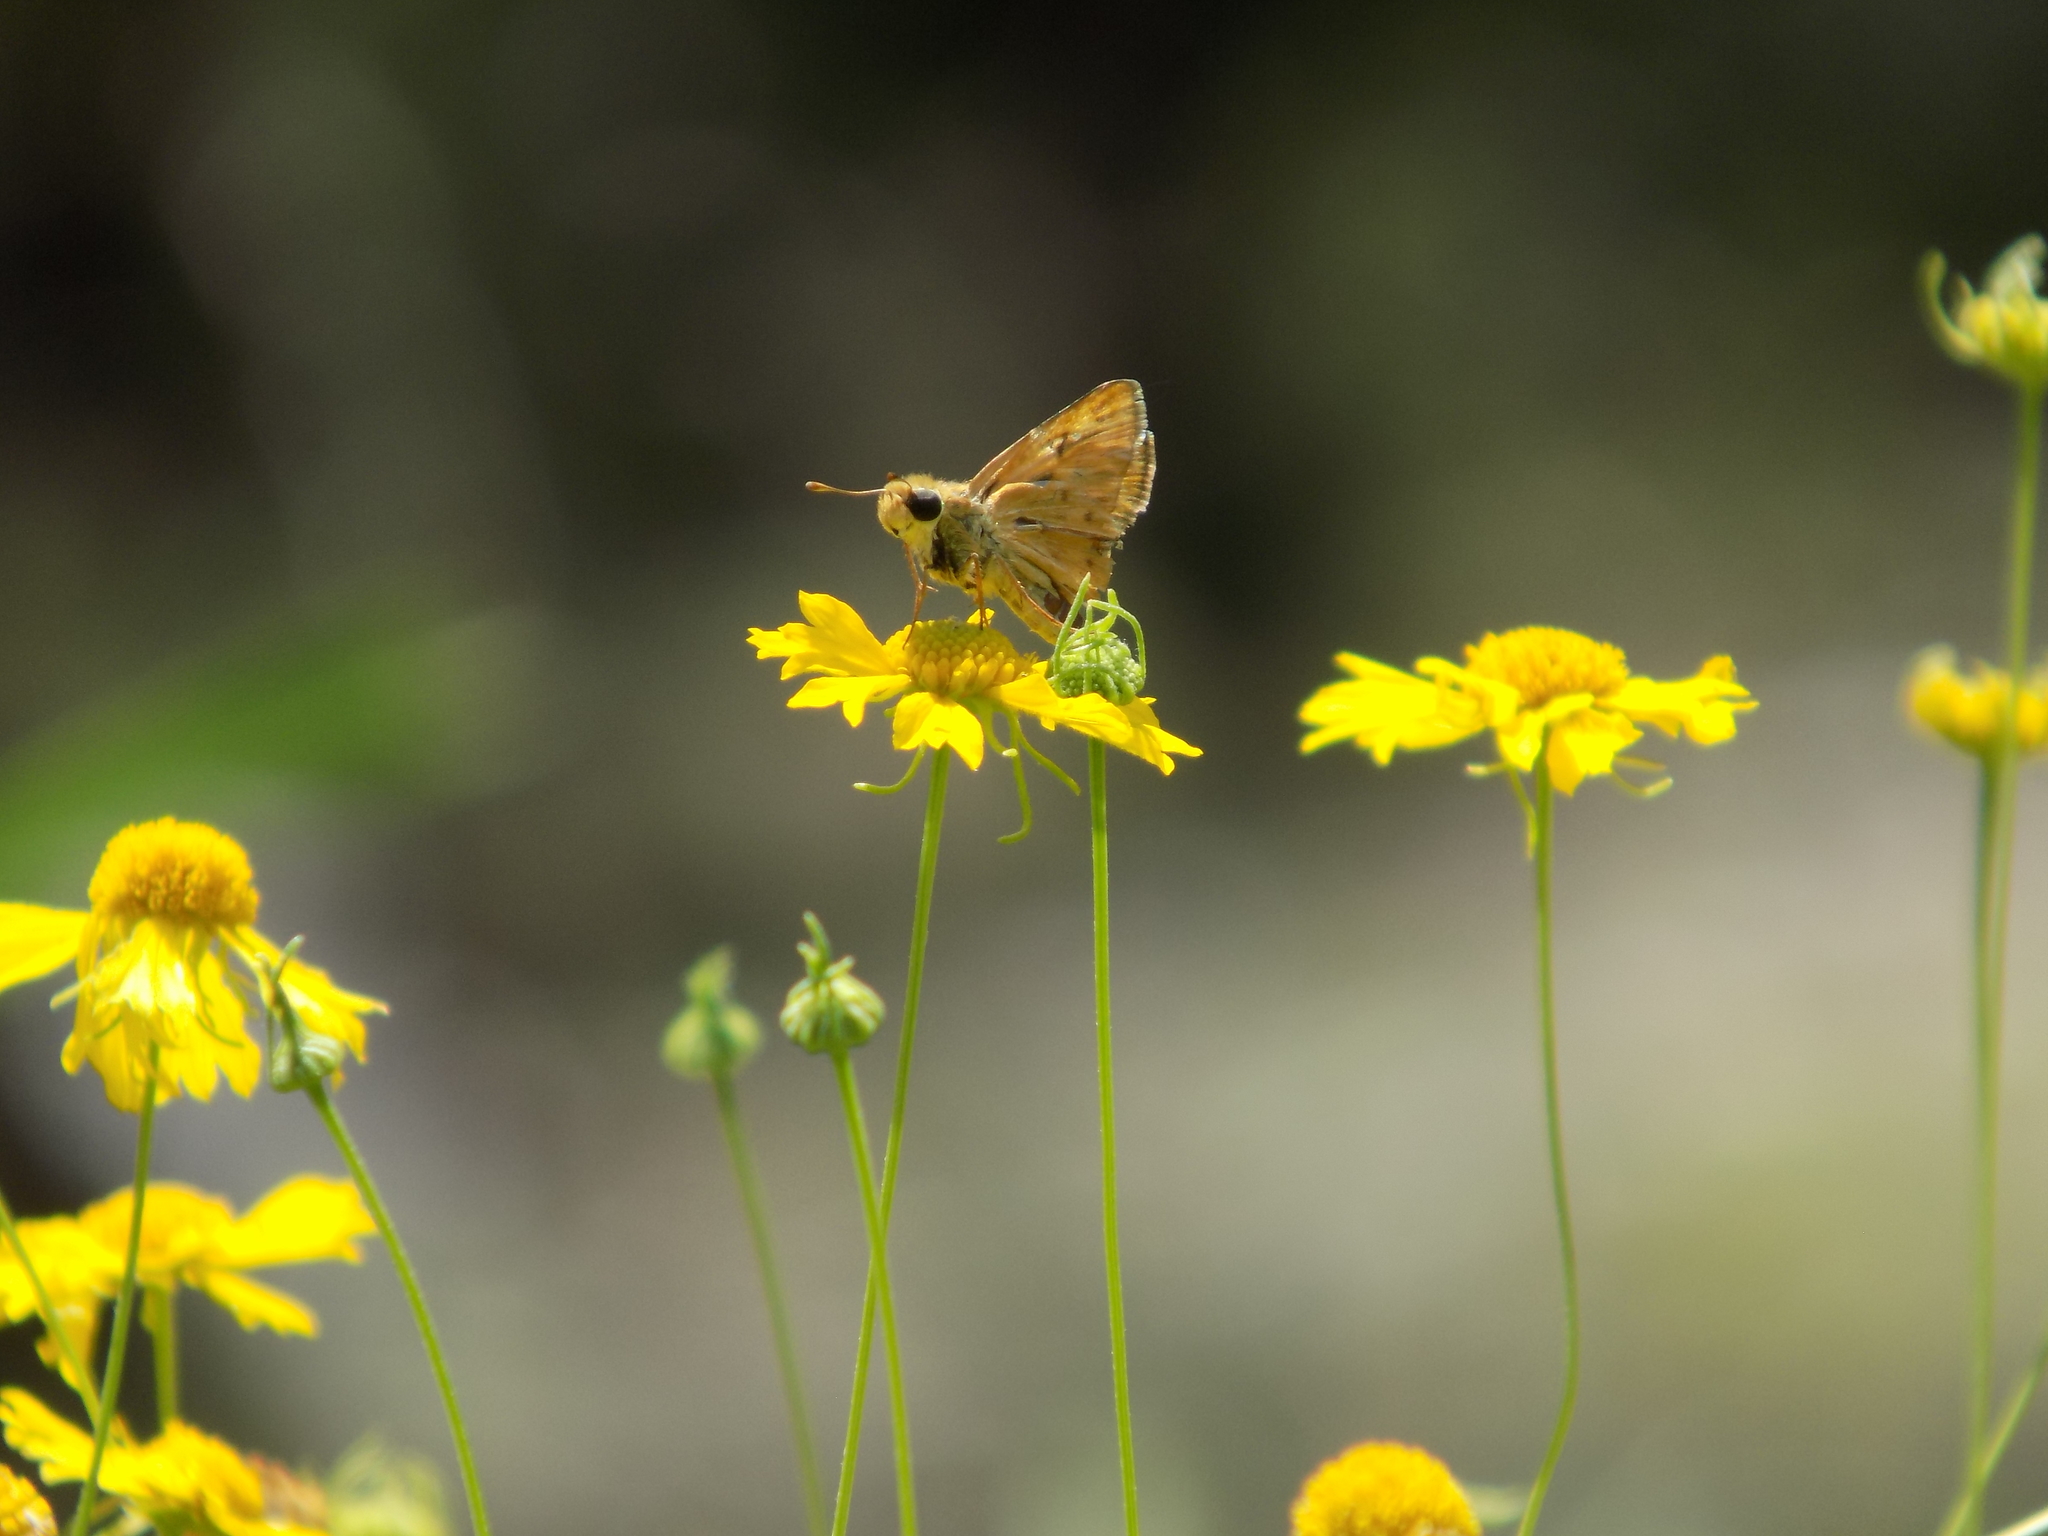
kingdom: Animalia
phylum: Arthropoda
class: Insecta
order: Lepidoptera
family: Hesperiidae
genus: Hylephila
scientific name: Hylephila phyleus
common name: Fiery skipper
